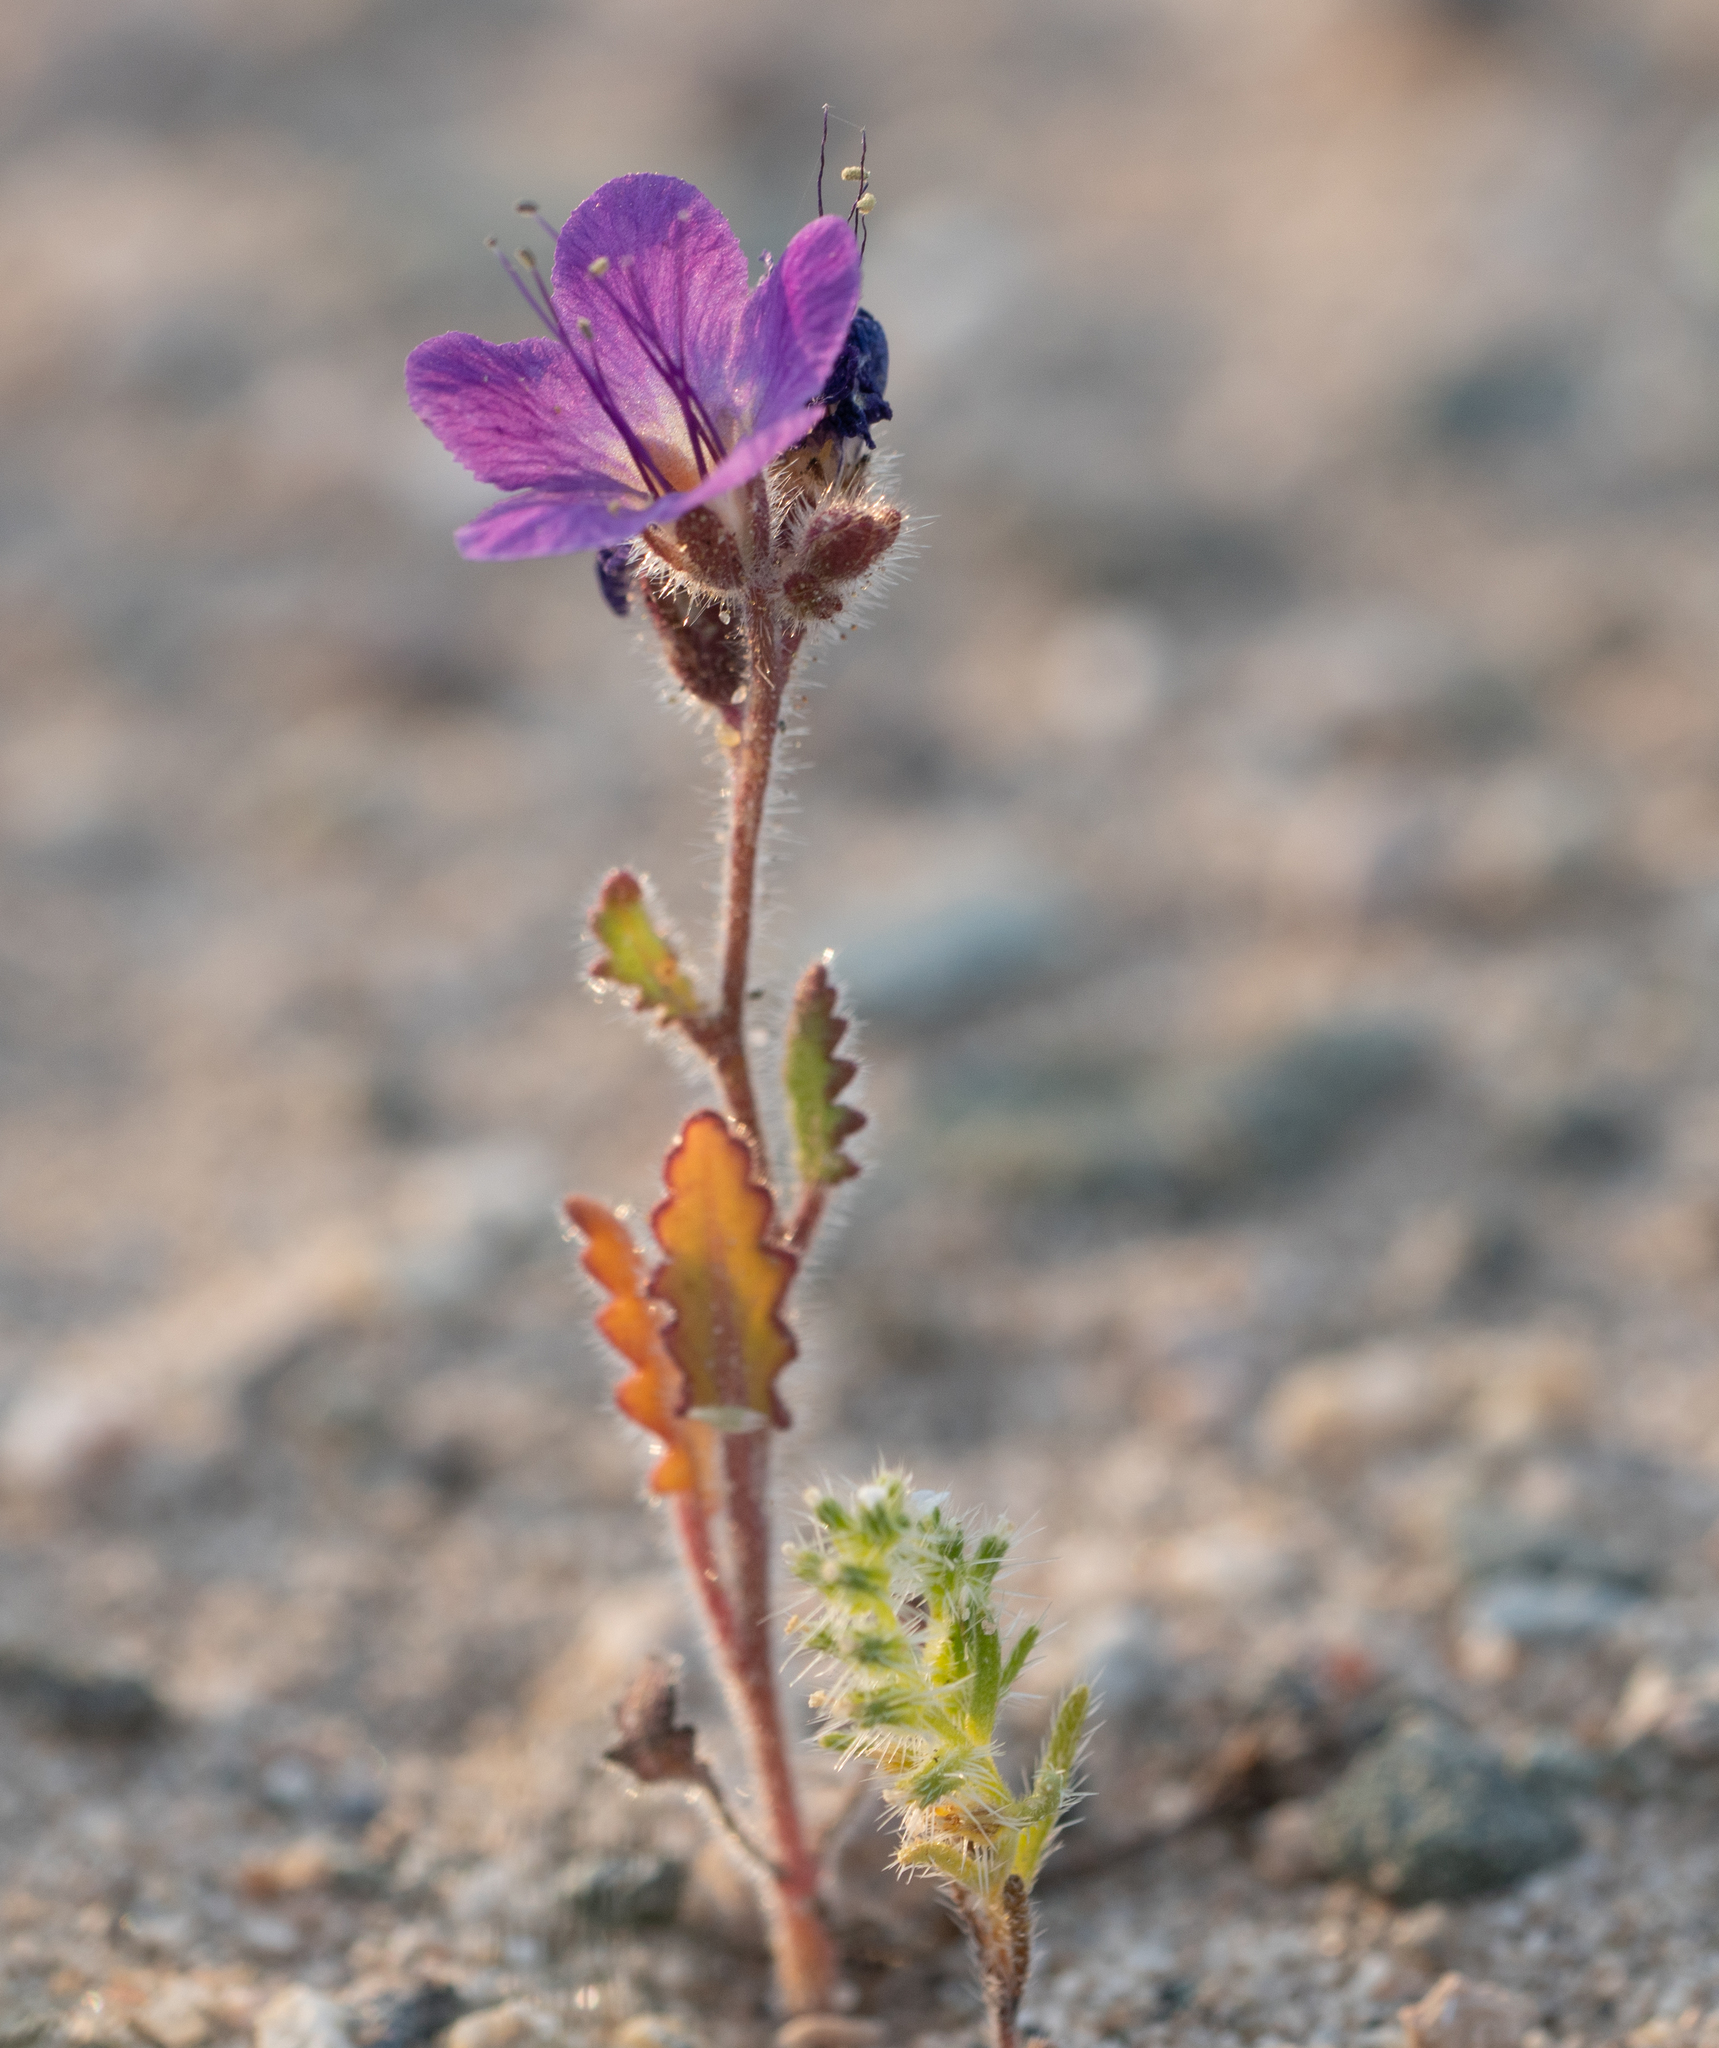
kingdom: Plantae
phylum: Tracheophyta
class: Magnoliopsida
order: Boraginales
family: Hydrophyllaceae
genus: Phacelia
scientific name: Phacelia crenulata
